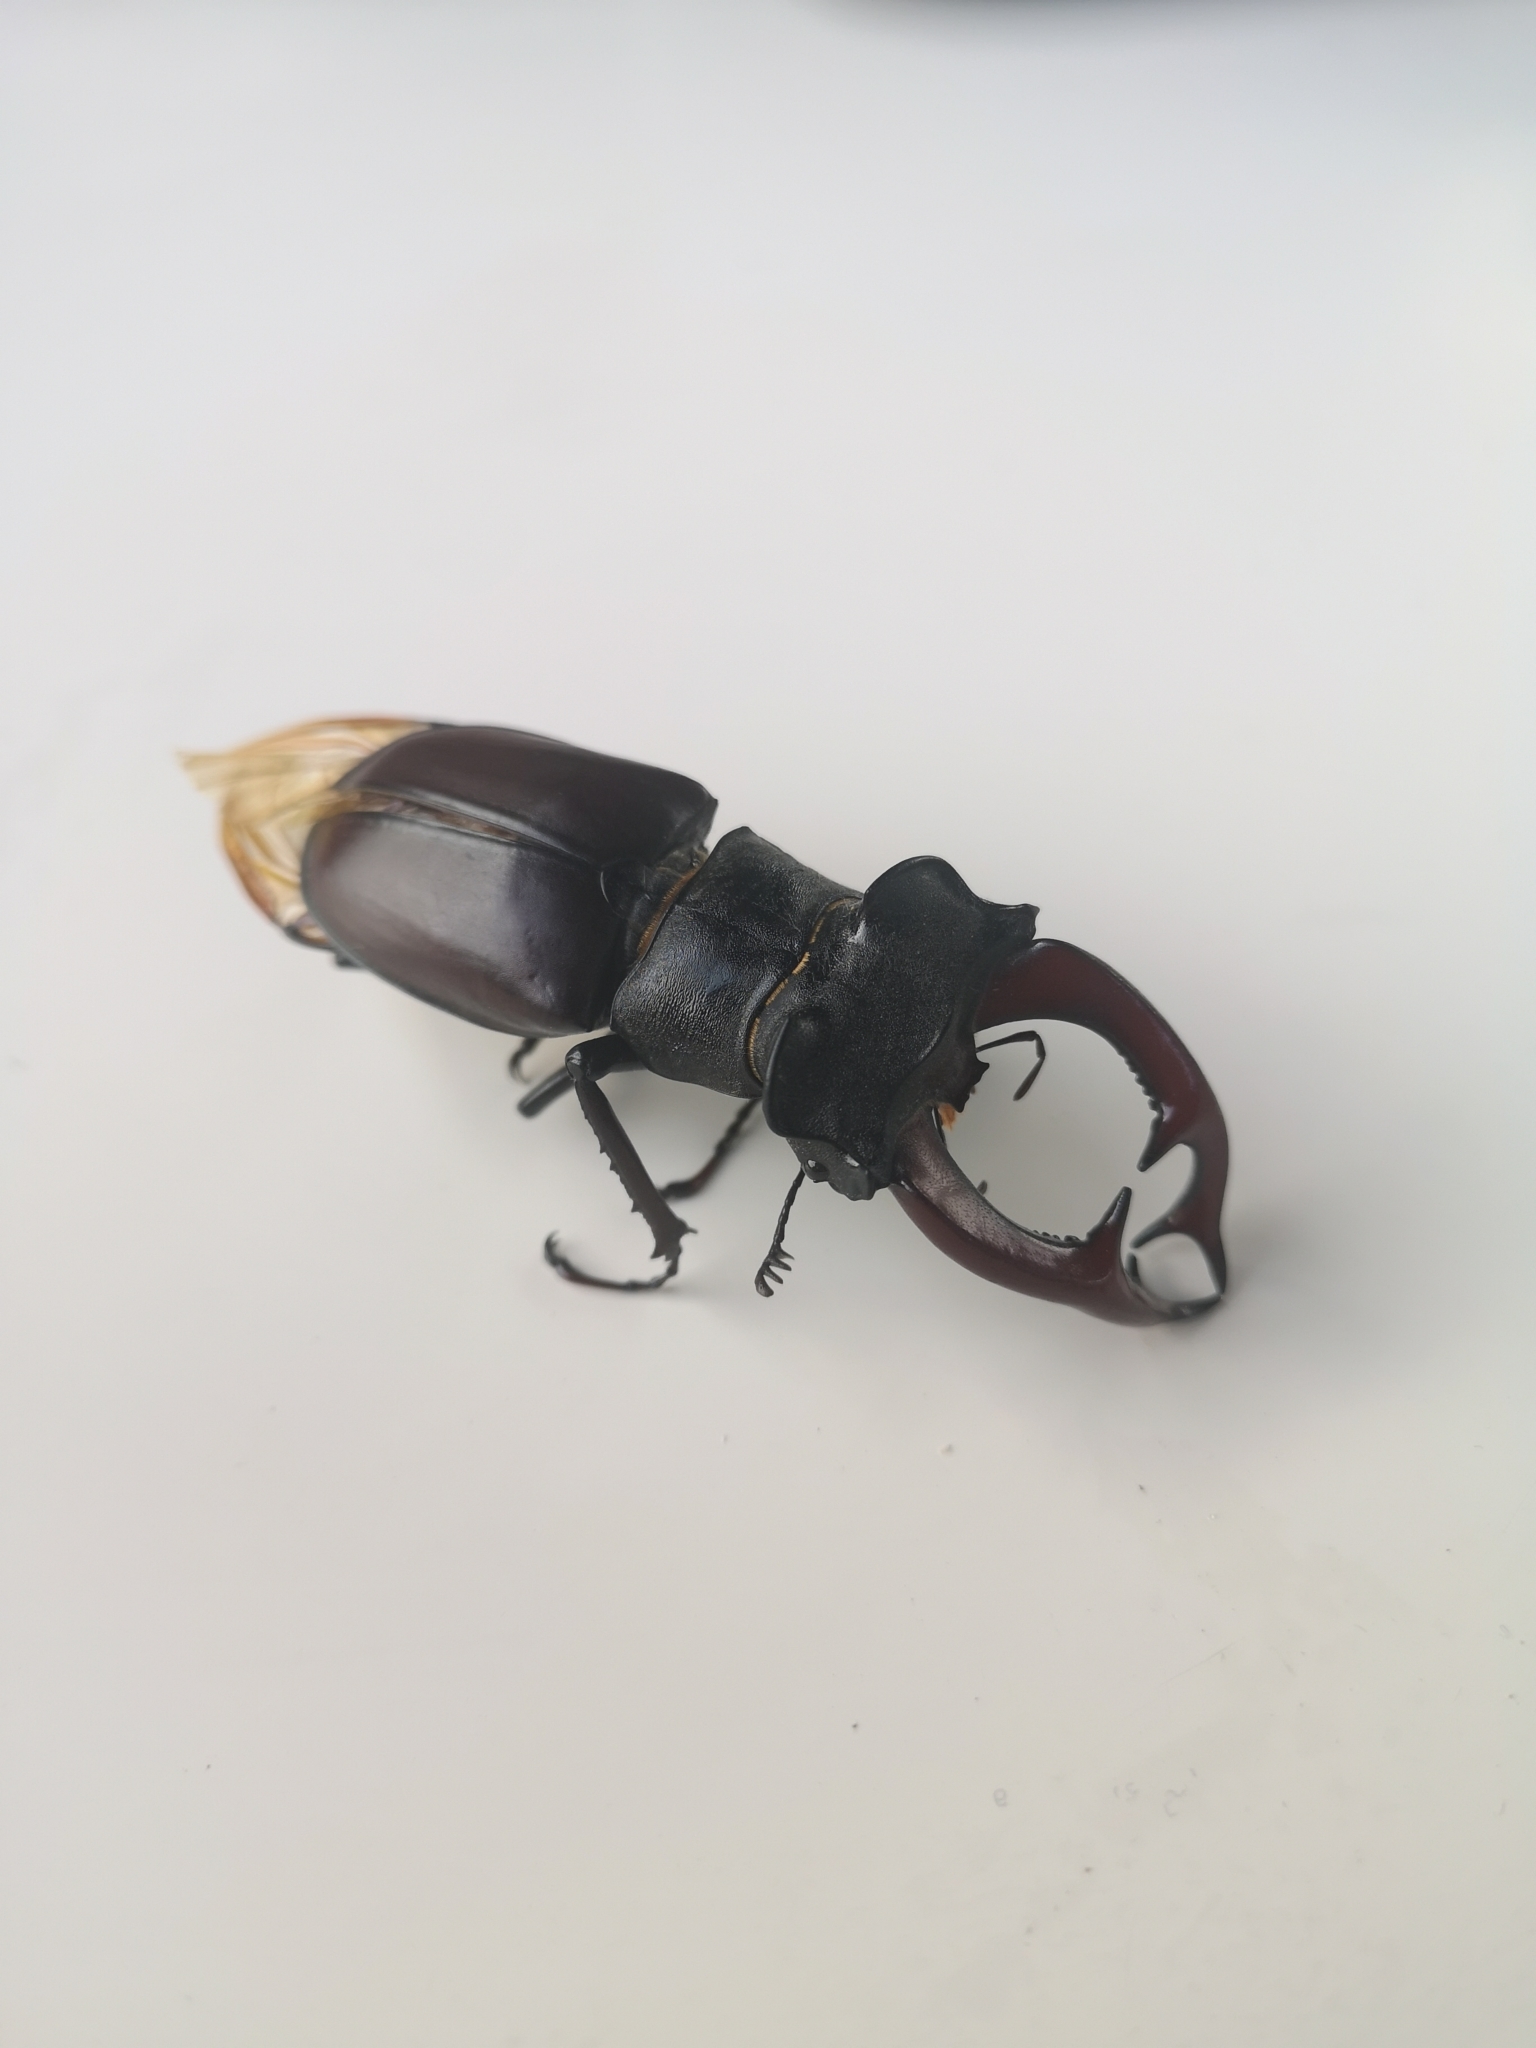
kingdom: Animalia
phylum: Arthropoda
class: Insecta
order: Coleoptera
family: Lucanidae
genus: Lucanus
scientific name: Lucanus cervus
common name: Stag beetle
